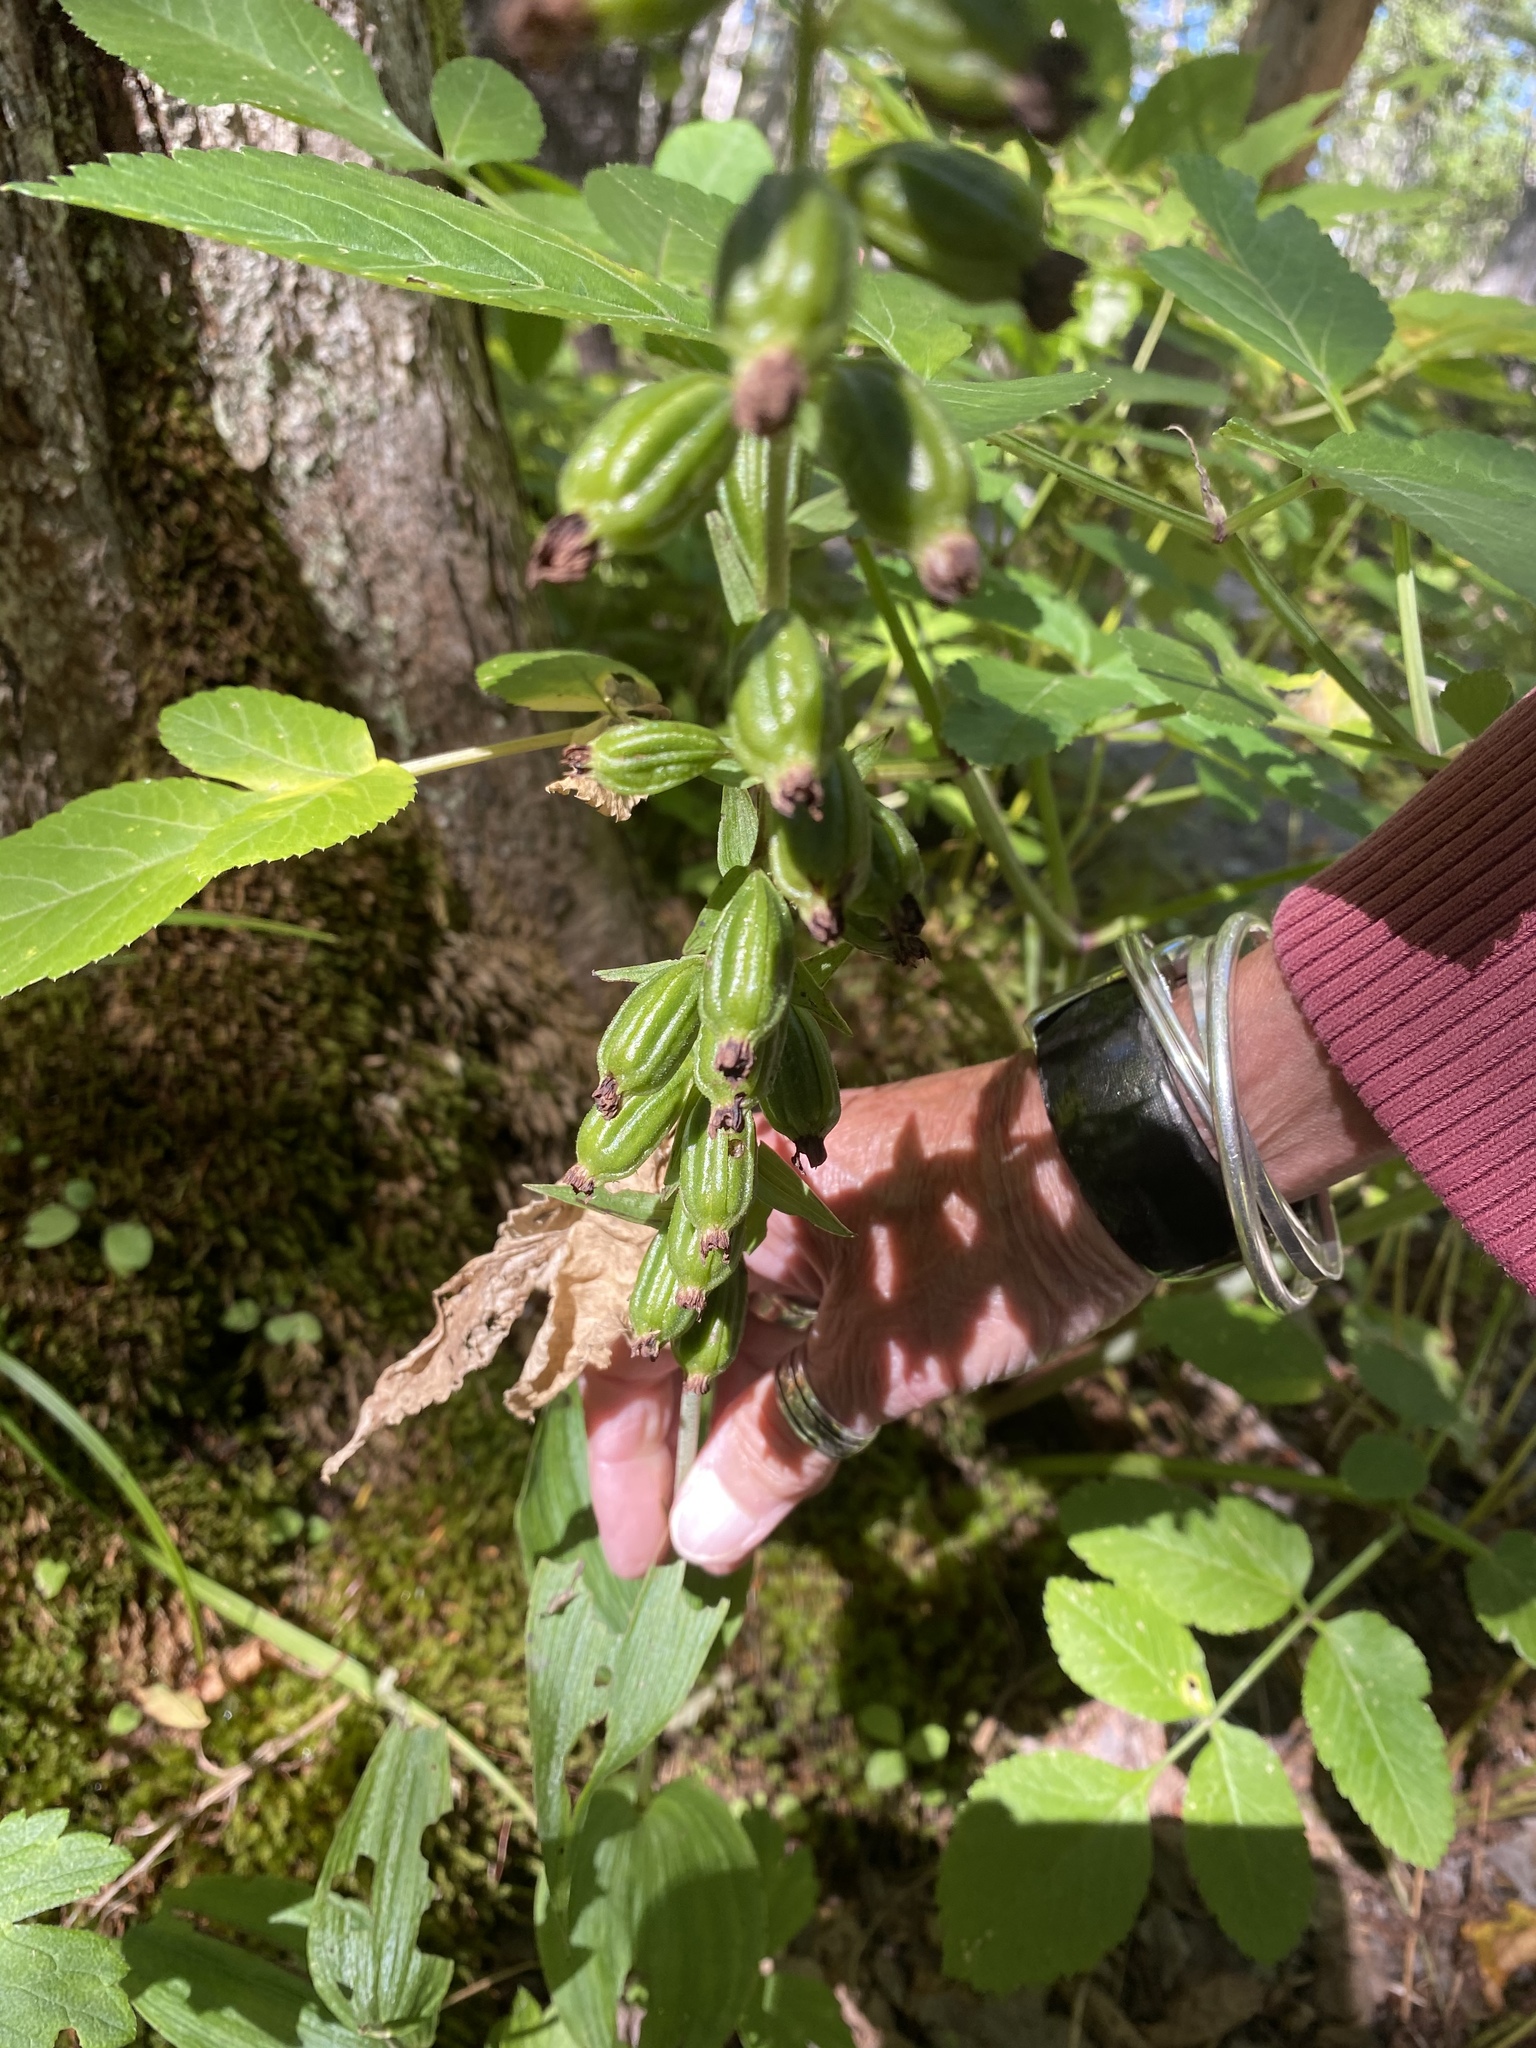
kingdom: Plantae
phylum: Tracheophyta
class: Liliopsida
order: Asparagales
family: Orchidaceae
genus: Epipactis
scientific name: Epipactis helleborine
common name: Broad-leaved helleborine
